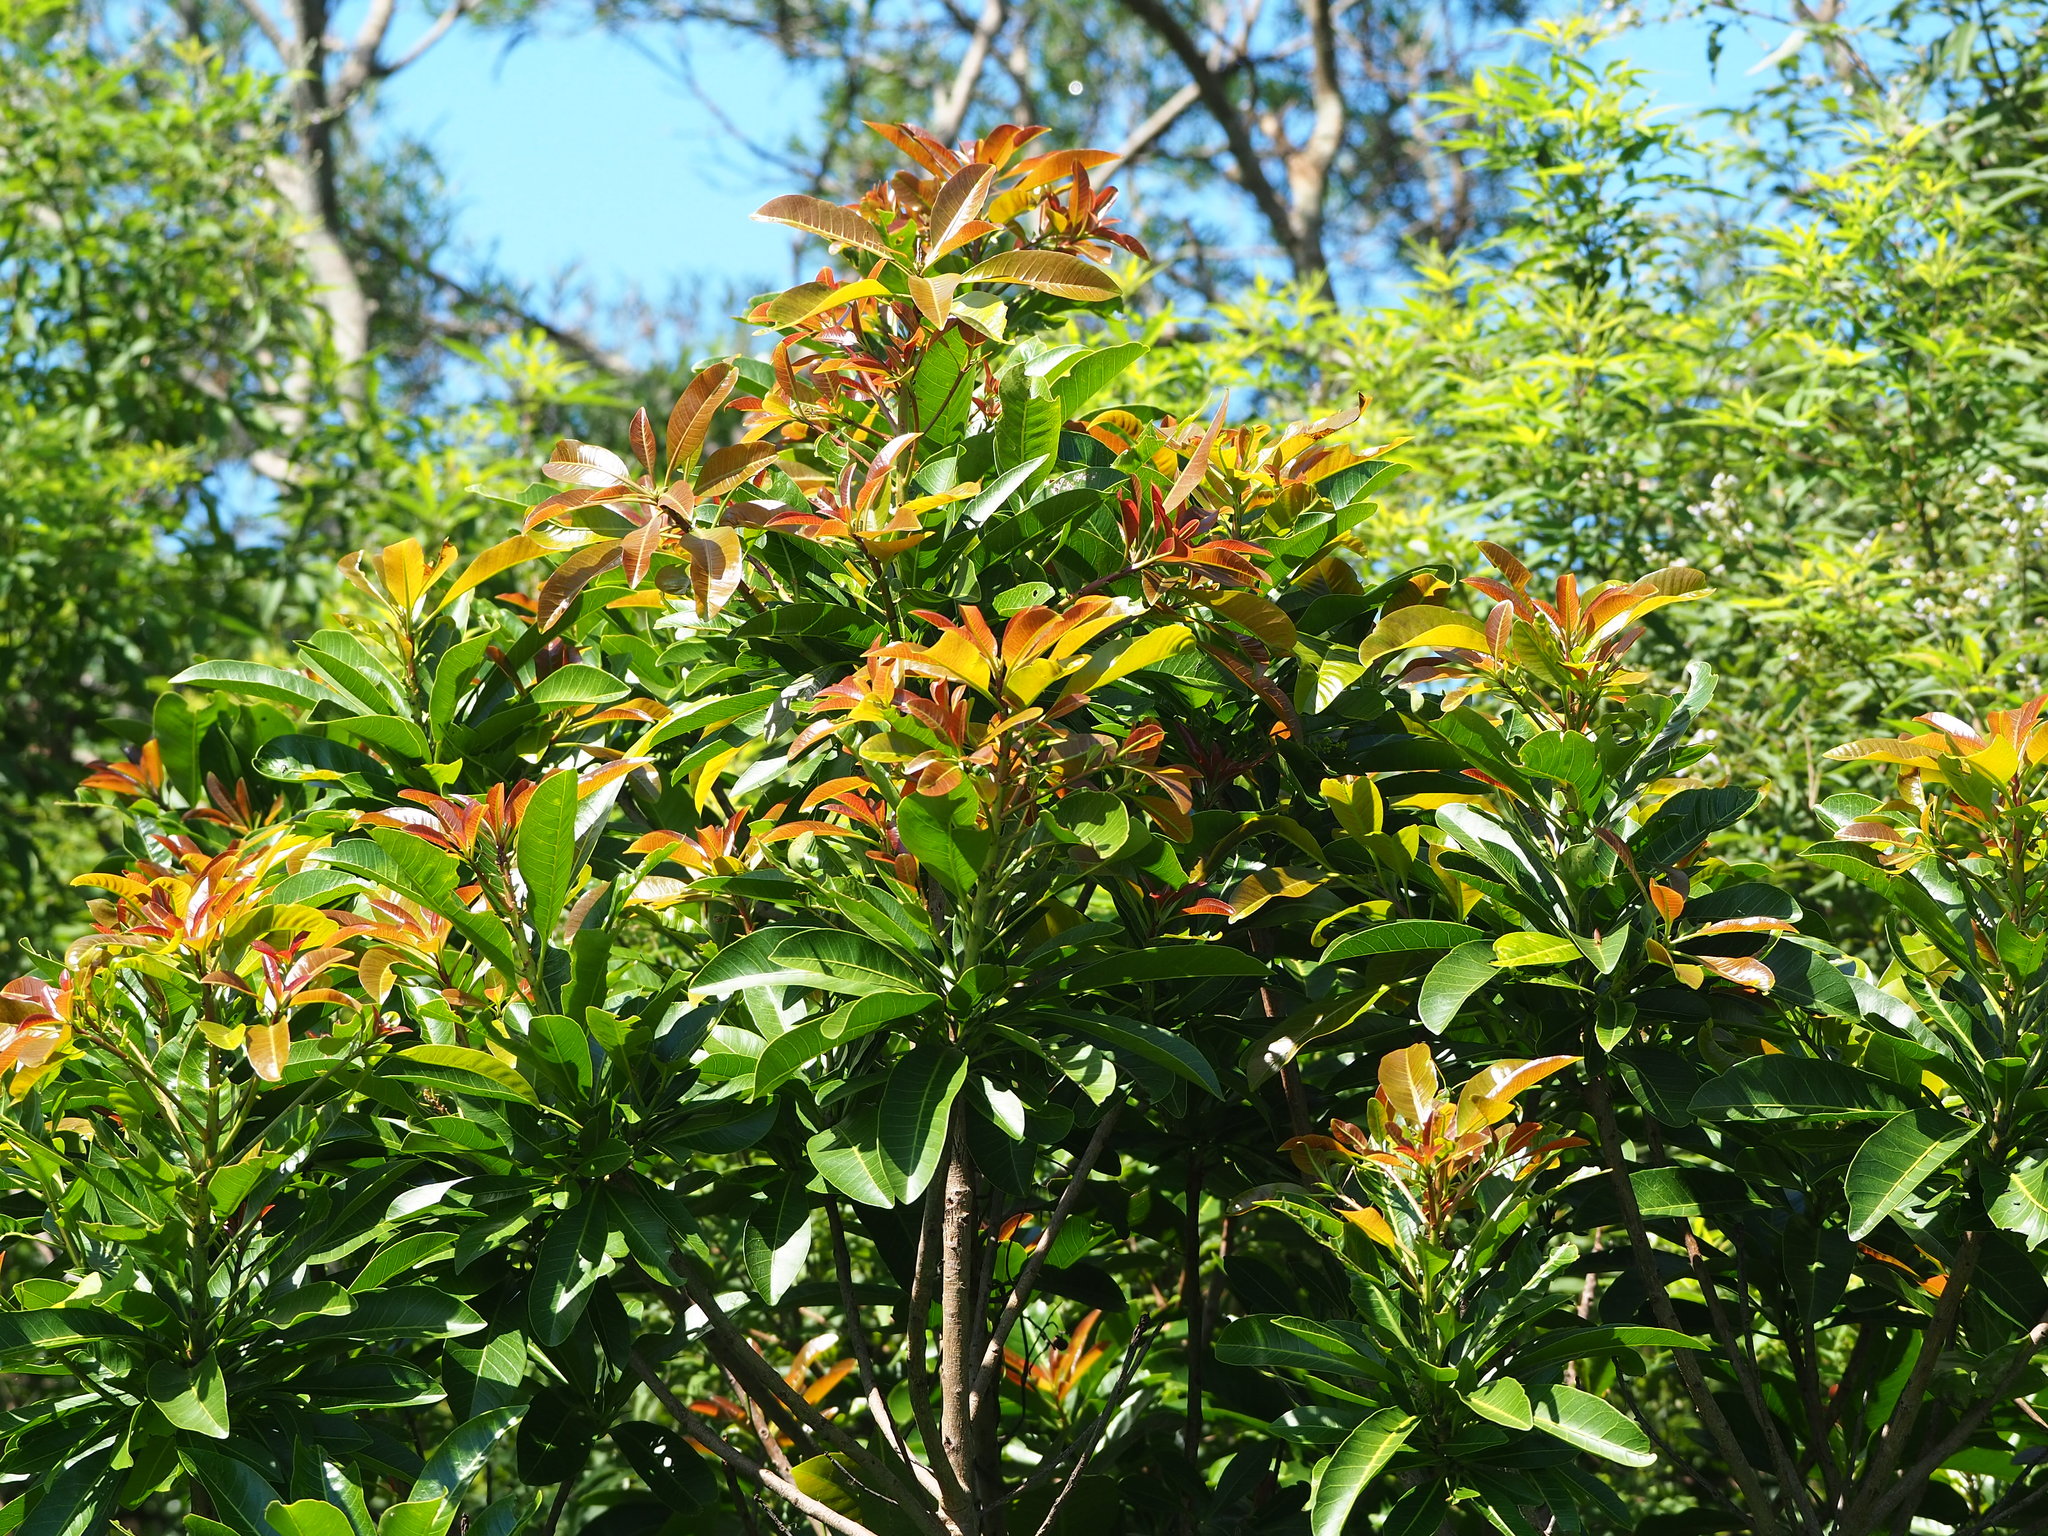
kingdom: Plantae
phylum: Tracheophyta
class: Magnoliopsida
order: Sapindales
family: Anacardiaceae
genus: Buchanania
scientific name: Buchanania arborescens
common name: Sparrow’s mango
